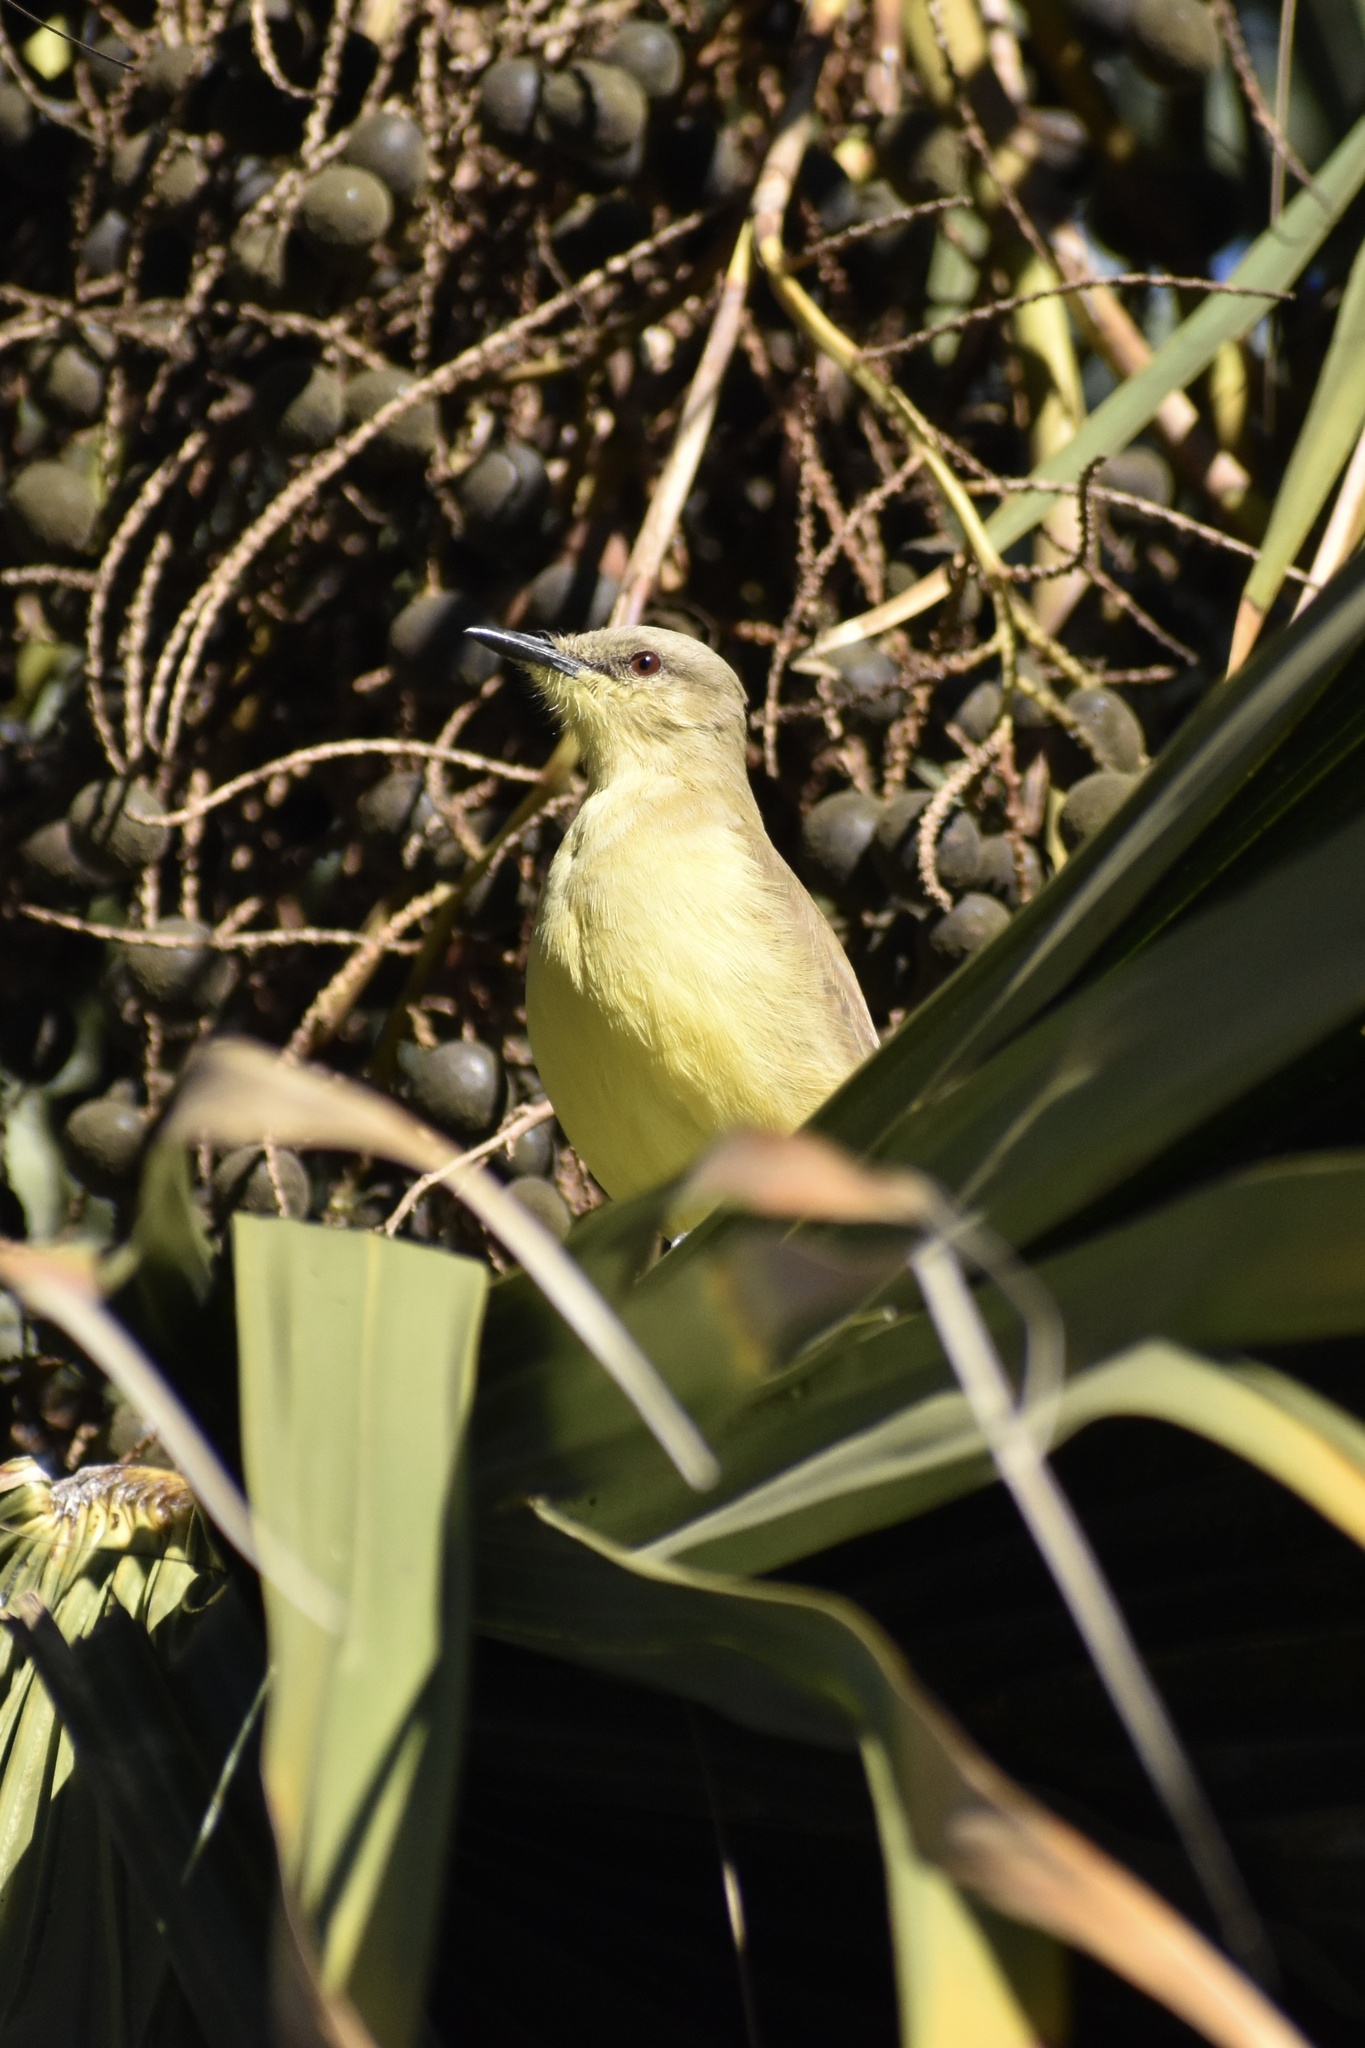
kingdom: Animalia
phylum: Chordata
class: Aves
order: Passeriformes
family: Tyrannidae
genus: Machetornis
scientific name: Machetornis rixosa
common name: Cattle tyrant
